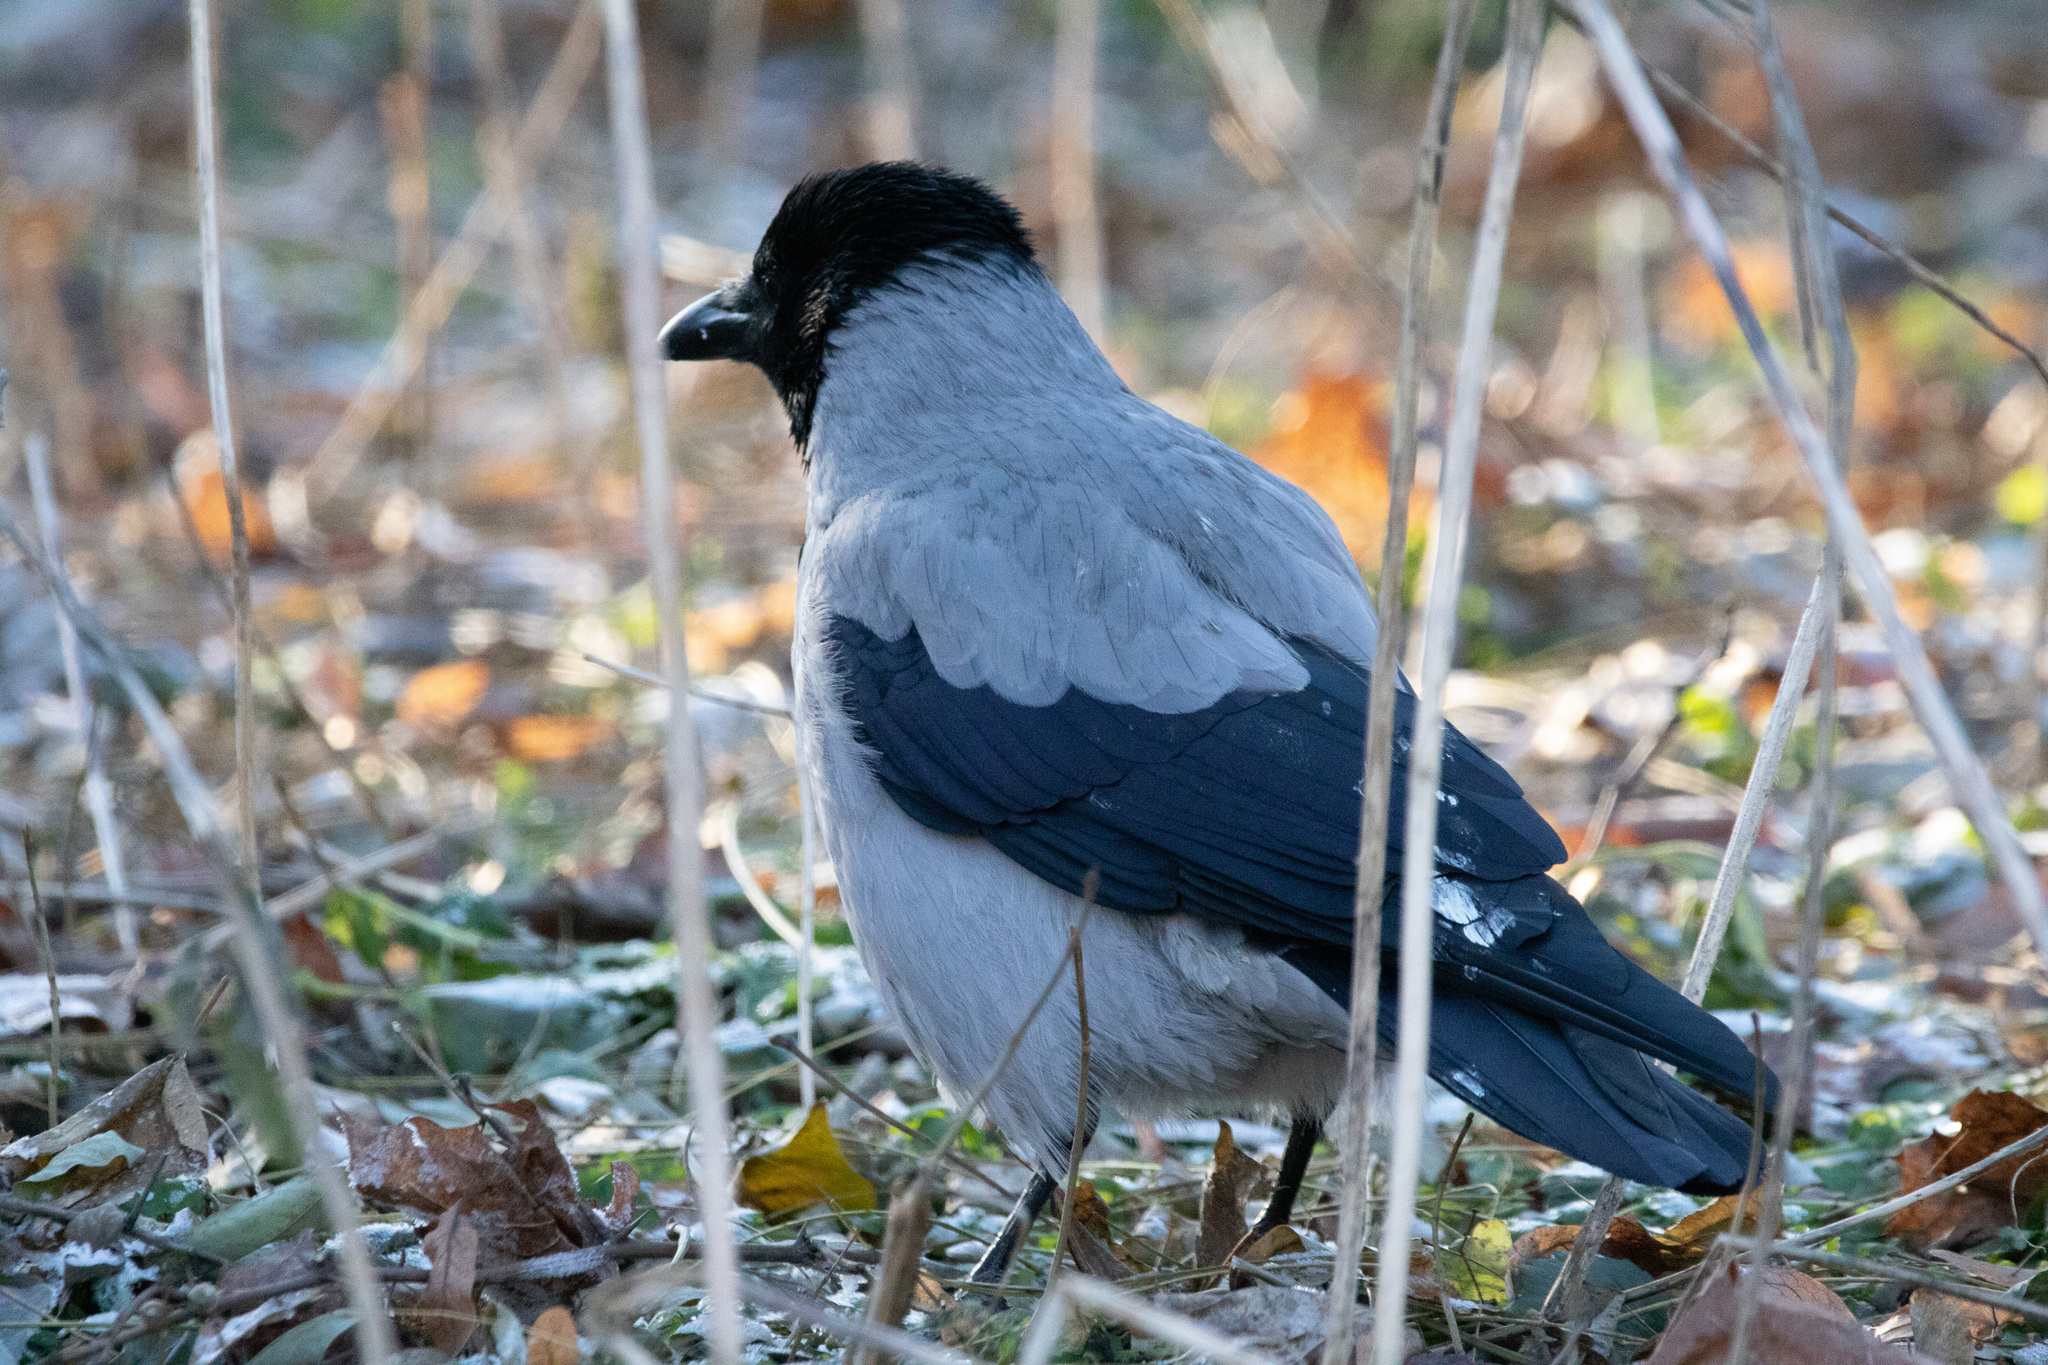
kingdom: Animalia
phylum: Chordata
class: Aves
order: Passeriformes
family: Corvidae
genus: Corvus
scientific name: Corvus cornix
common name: Hooded crow
